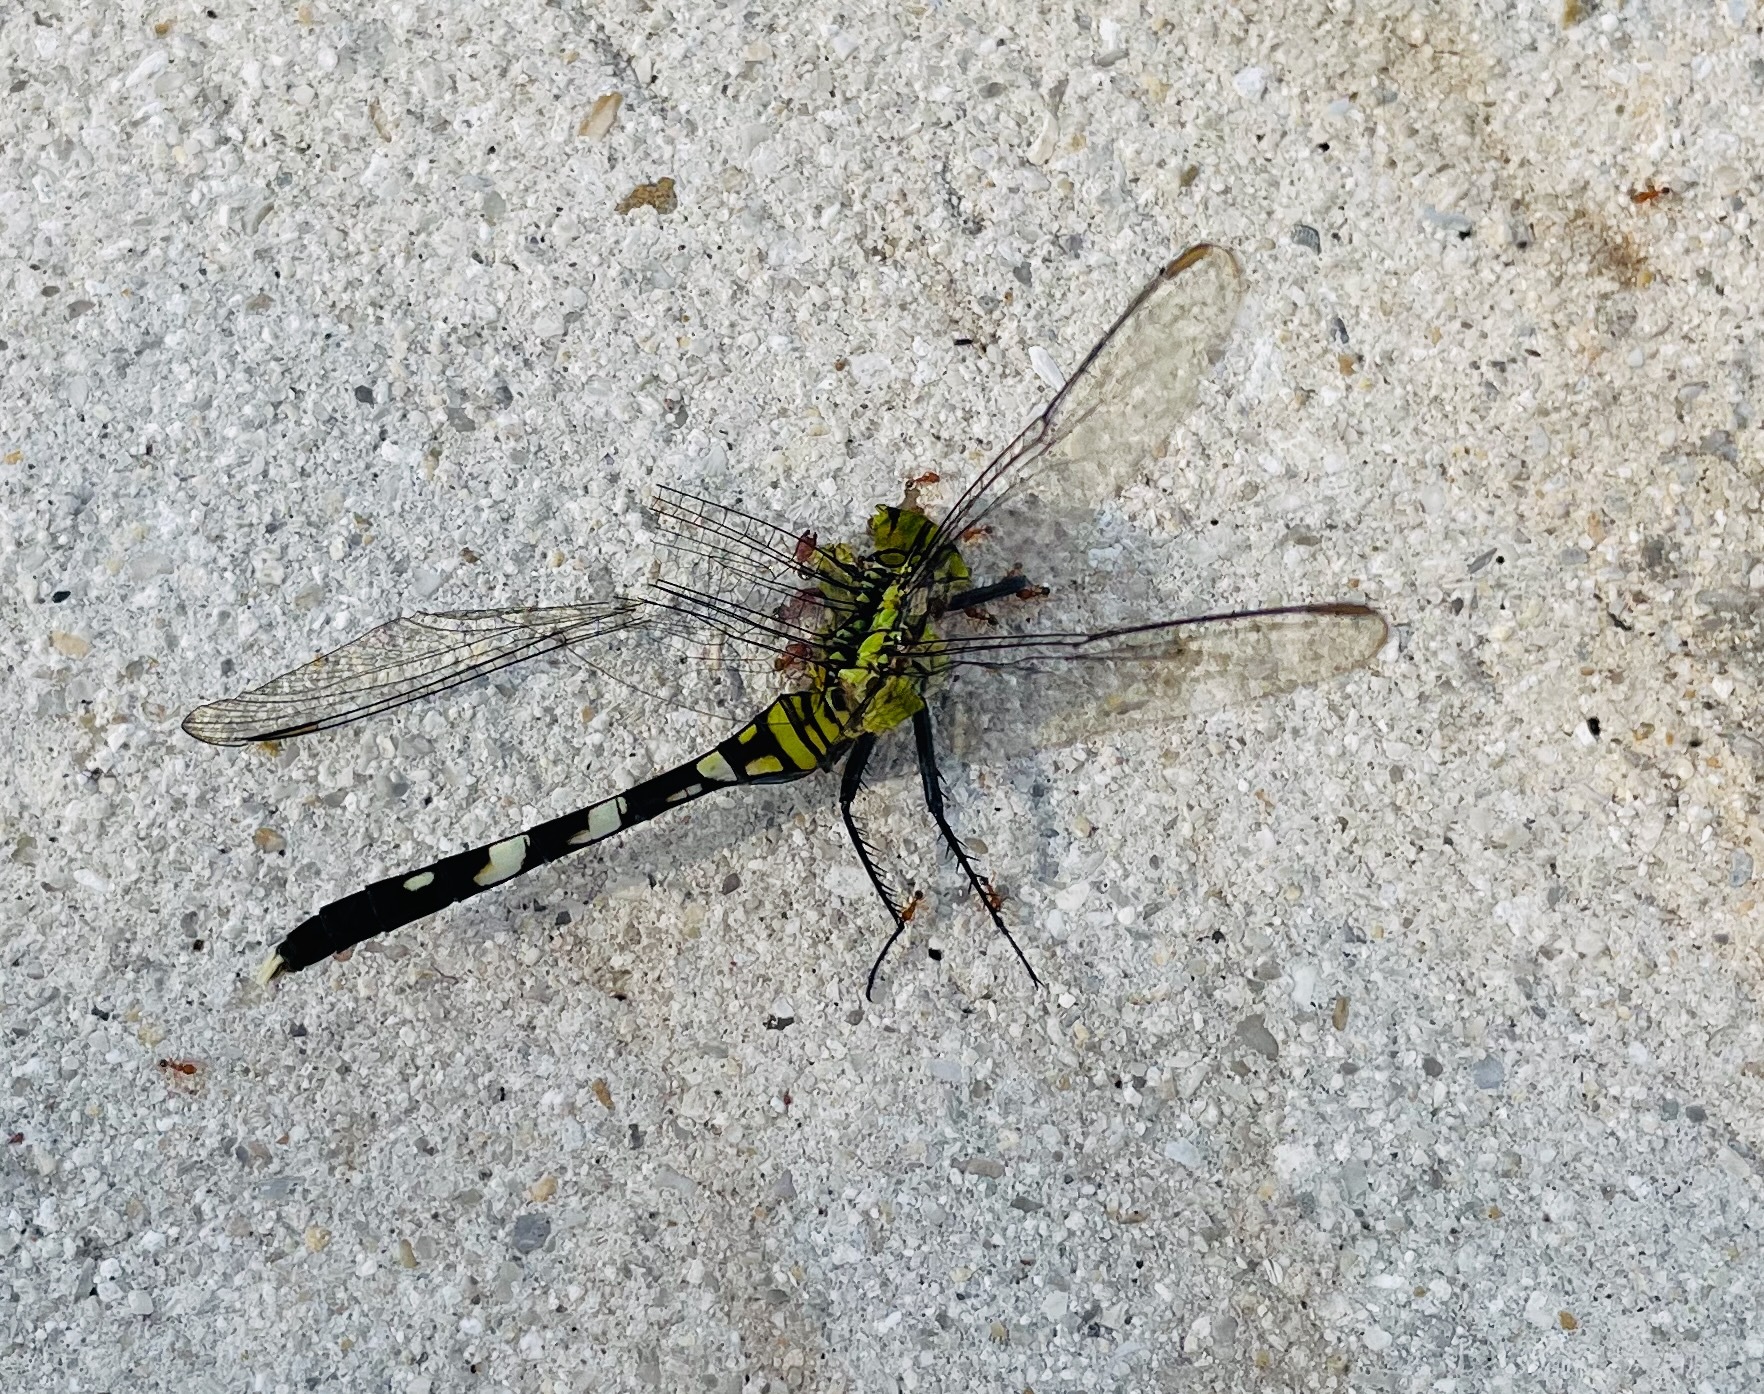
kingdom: Animalia
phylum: Arthropoda
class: Insecta
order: Odonata
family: Libellulidae
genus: Erythemis
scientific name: Erythemis simplicicollis
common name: Eastern pondhawk
